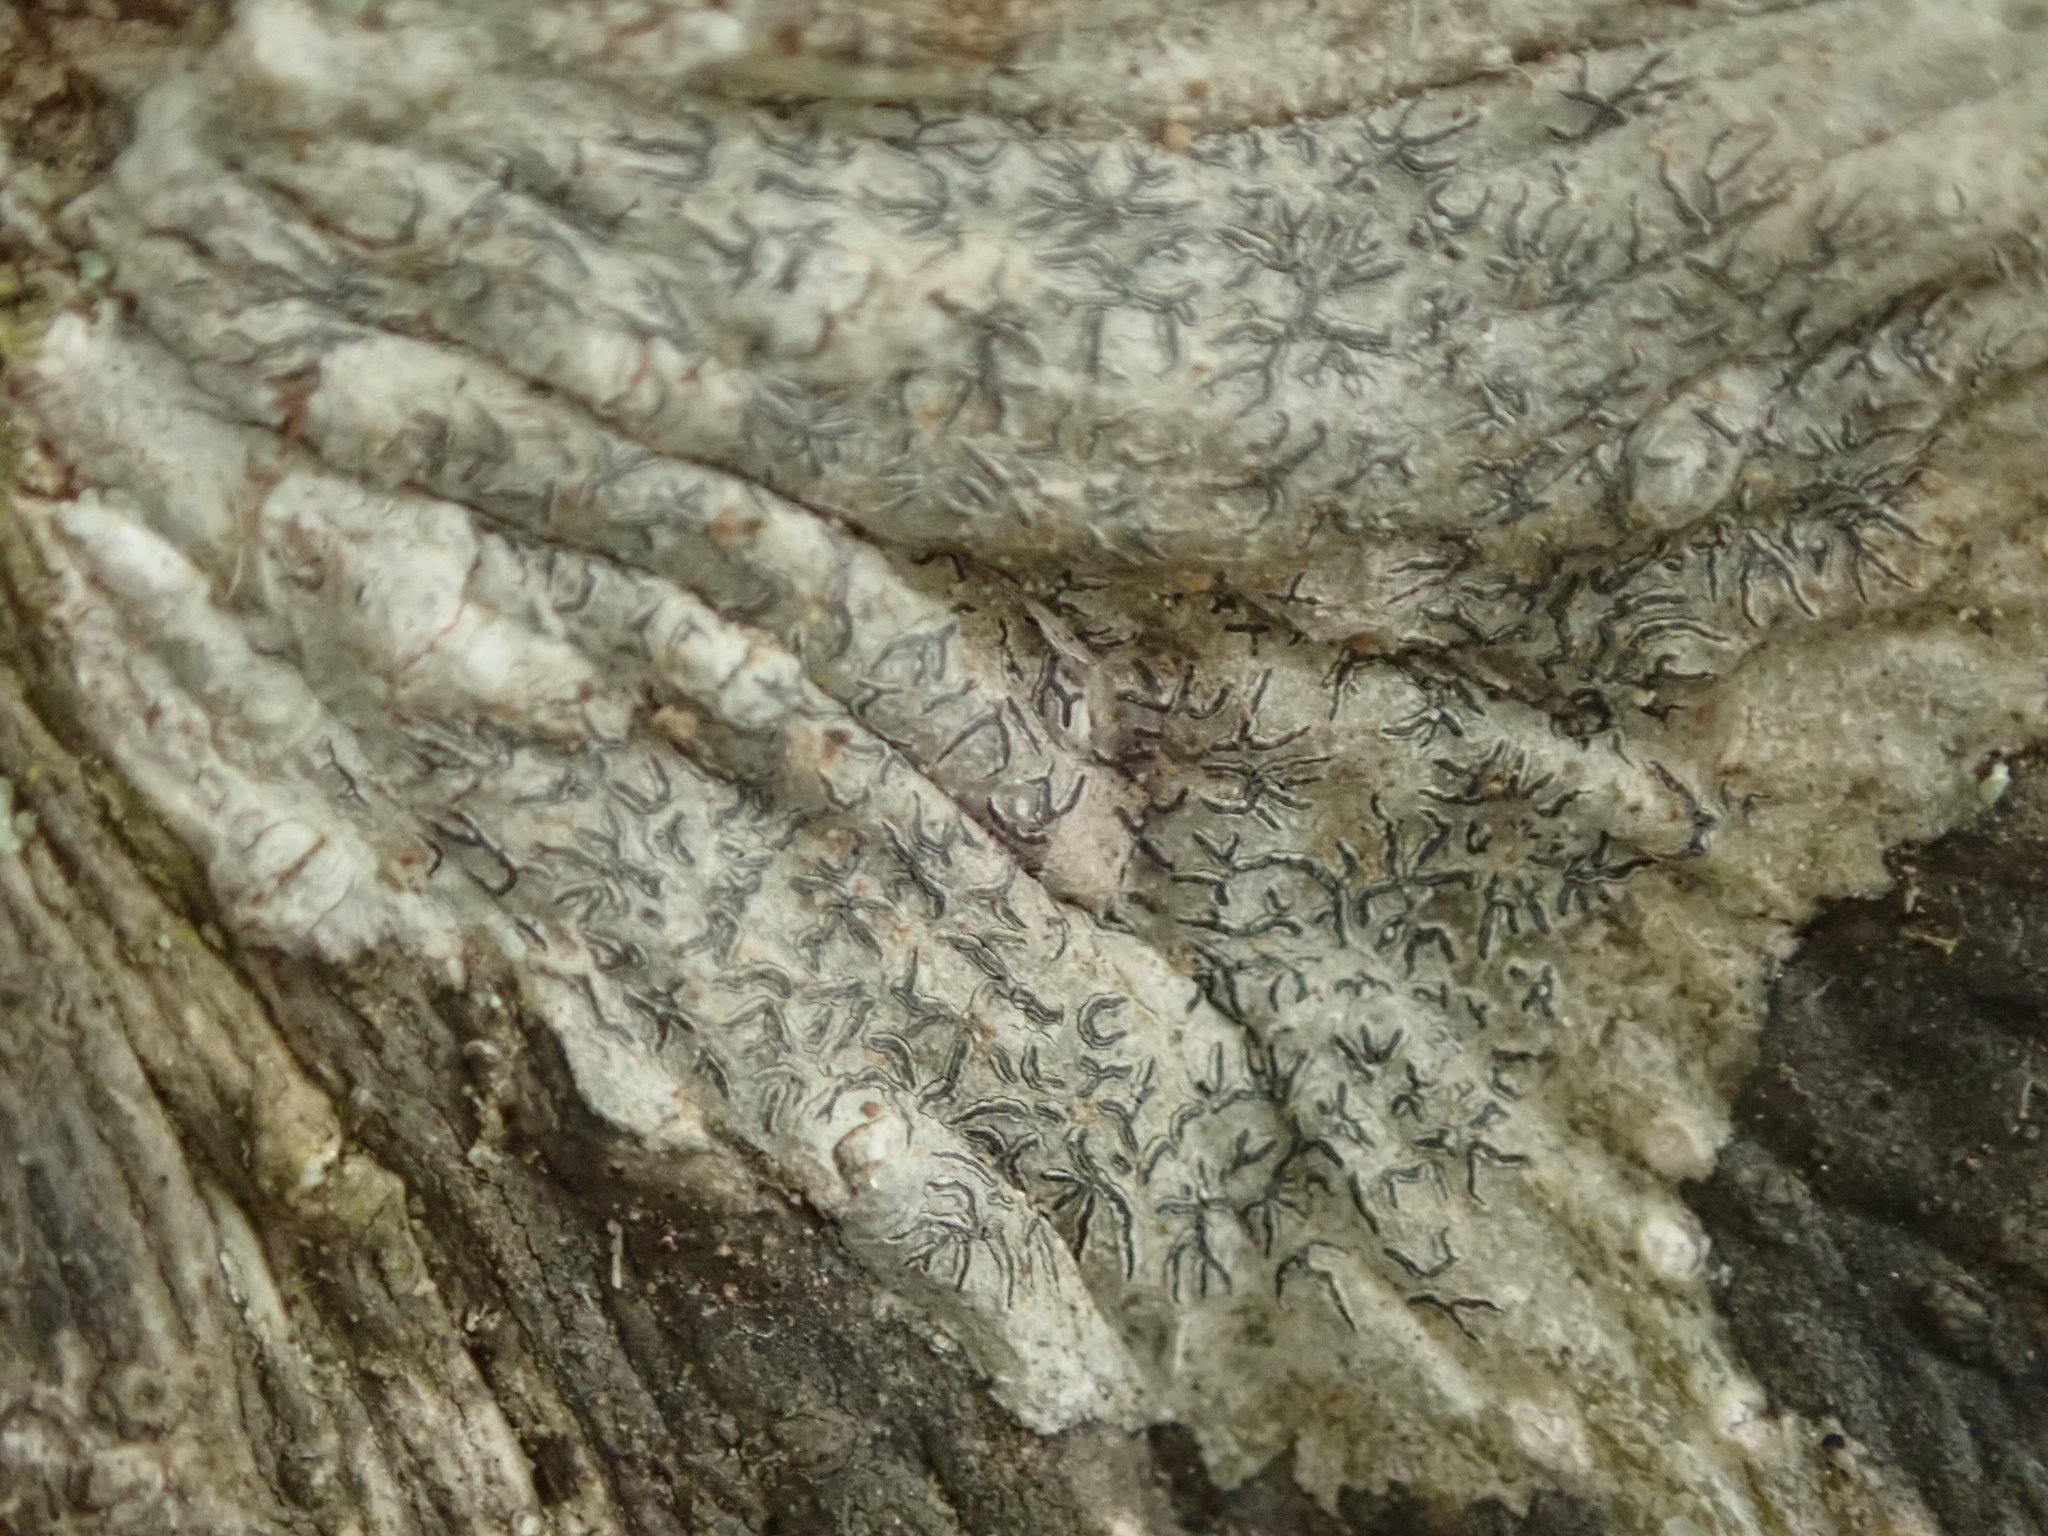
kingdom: Fungi
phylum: Ascomycota
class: Lecanoromycetes
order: Ostropales
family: Graphidaceae
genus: Graphis
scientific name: Graphis scripta
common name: Script lichen
